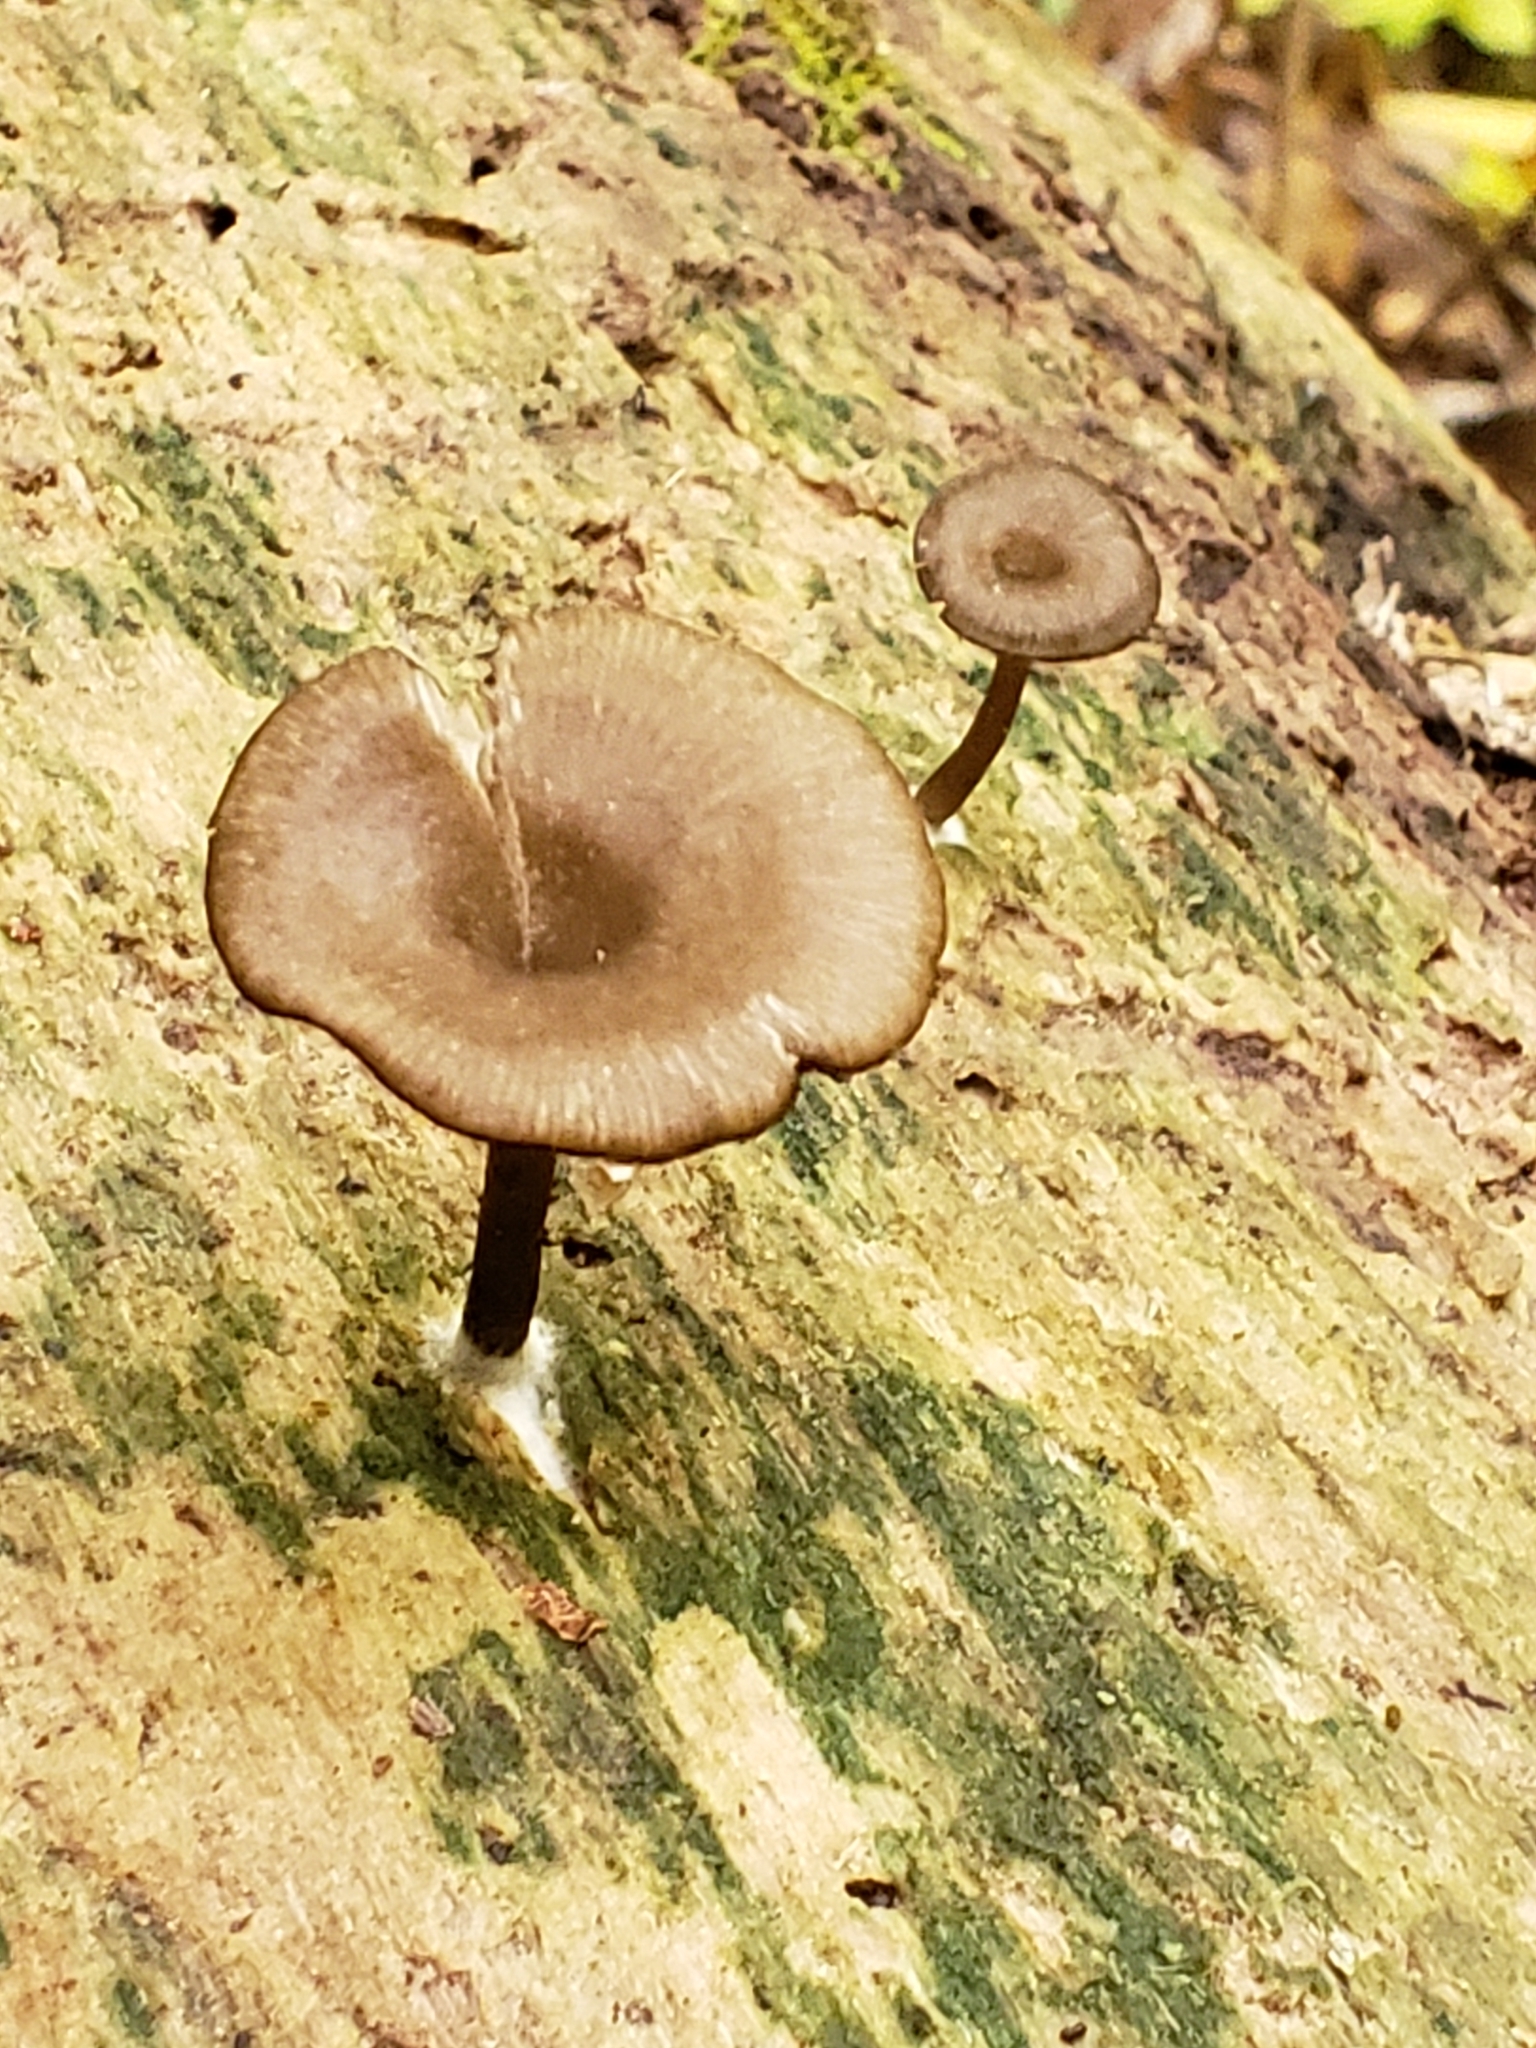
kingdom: Fungi
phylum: Basidiomycota
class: Agaricomycetes
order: Agaricales
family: Hygrophoraceae
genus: Arrhenia
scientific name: Arrhenia epichysium
